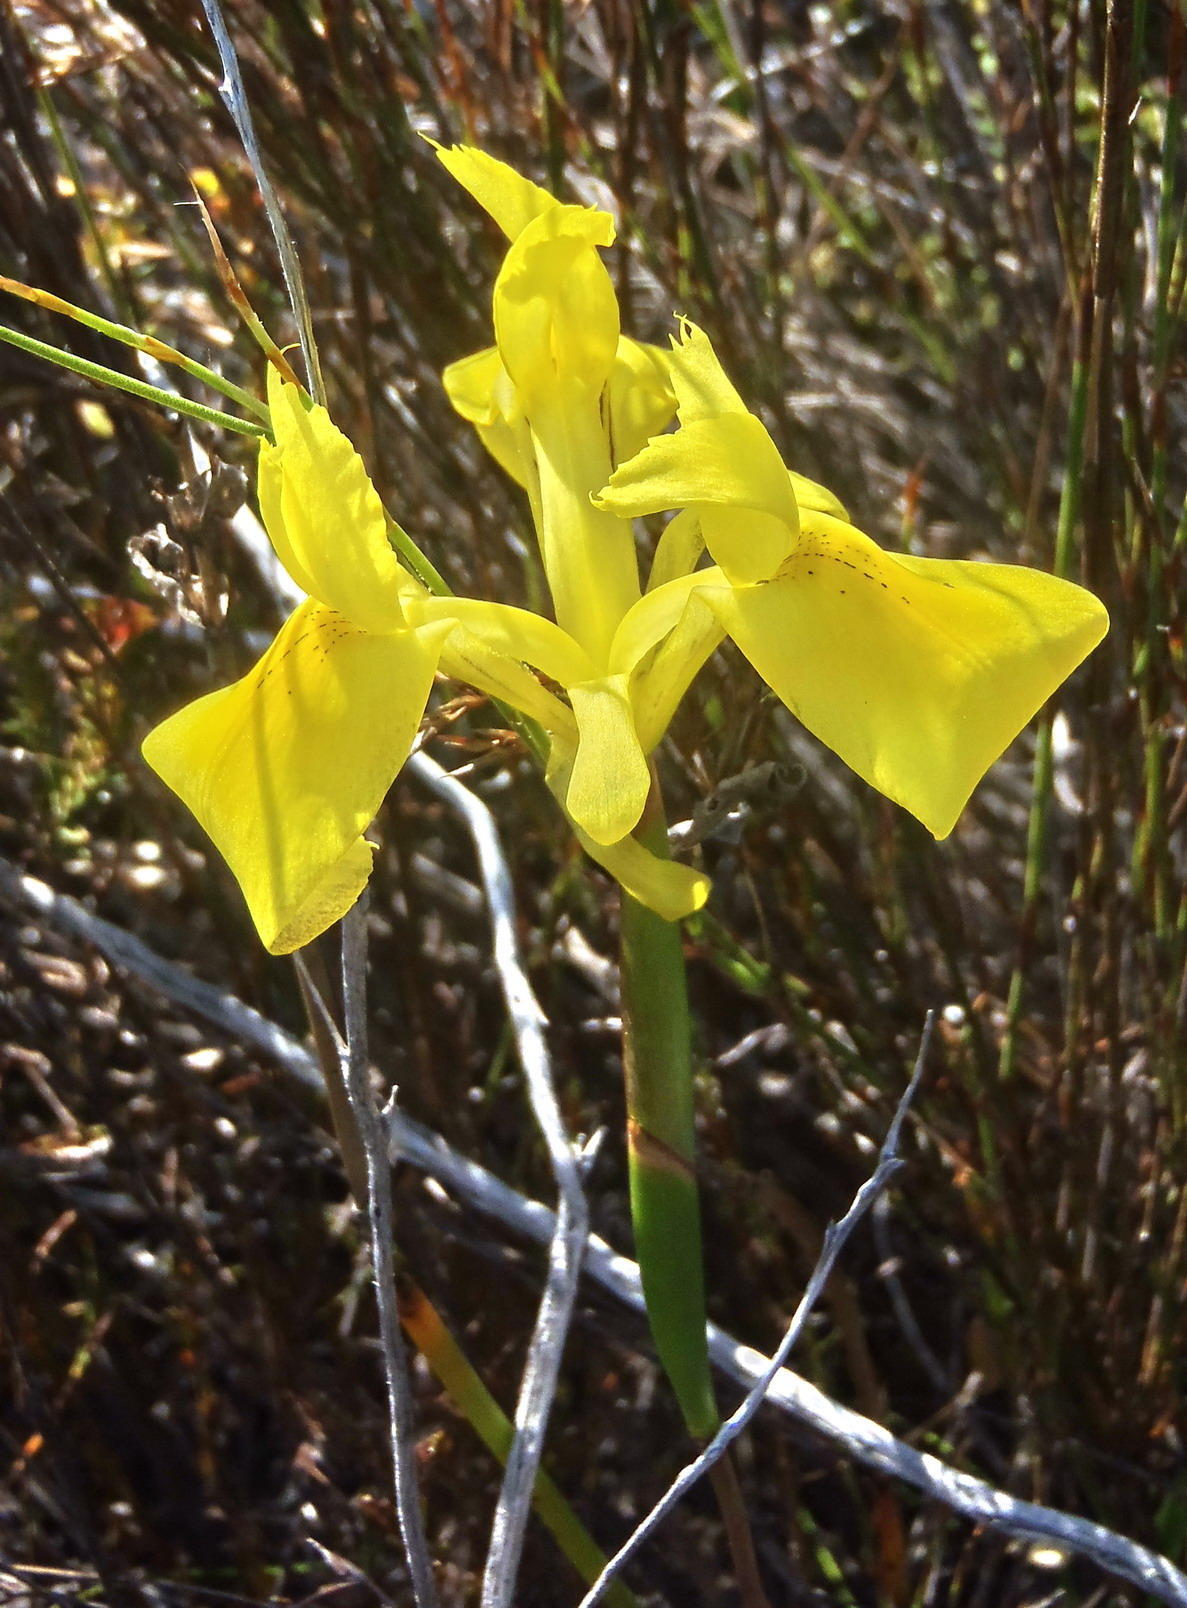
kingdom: Plantae
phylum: Tracheophyta
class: Liliopsida
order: Asparagales
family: Iridaceae
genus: Moraea
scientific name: Moraea neglecta
